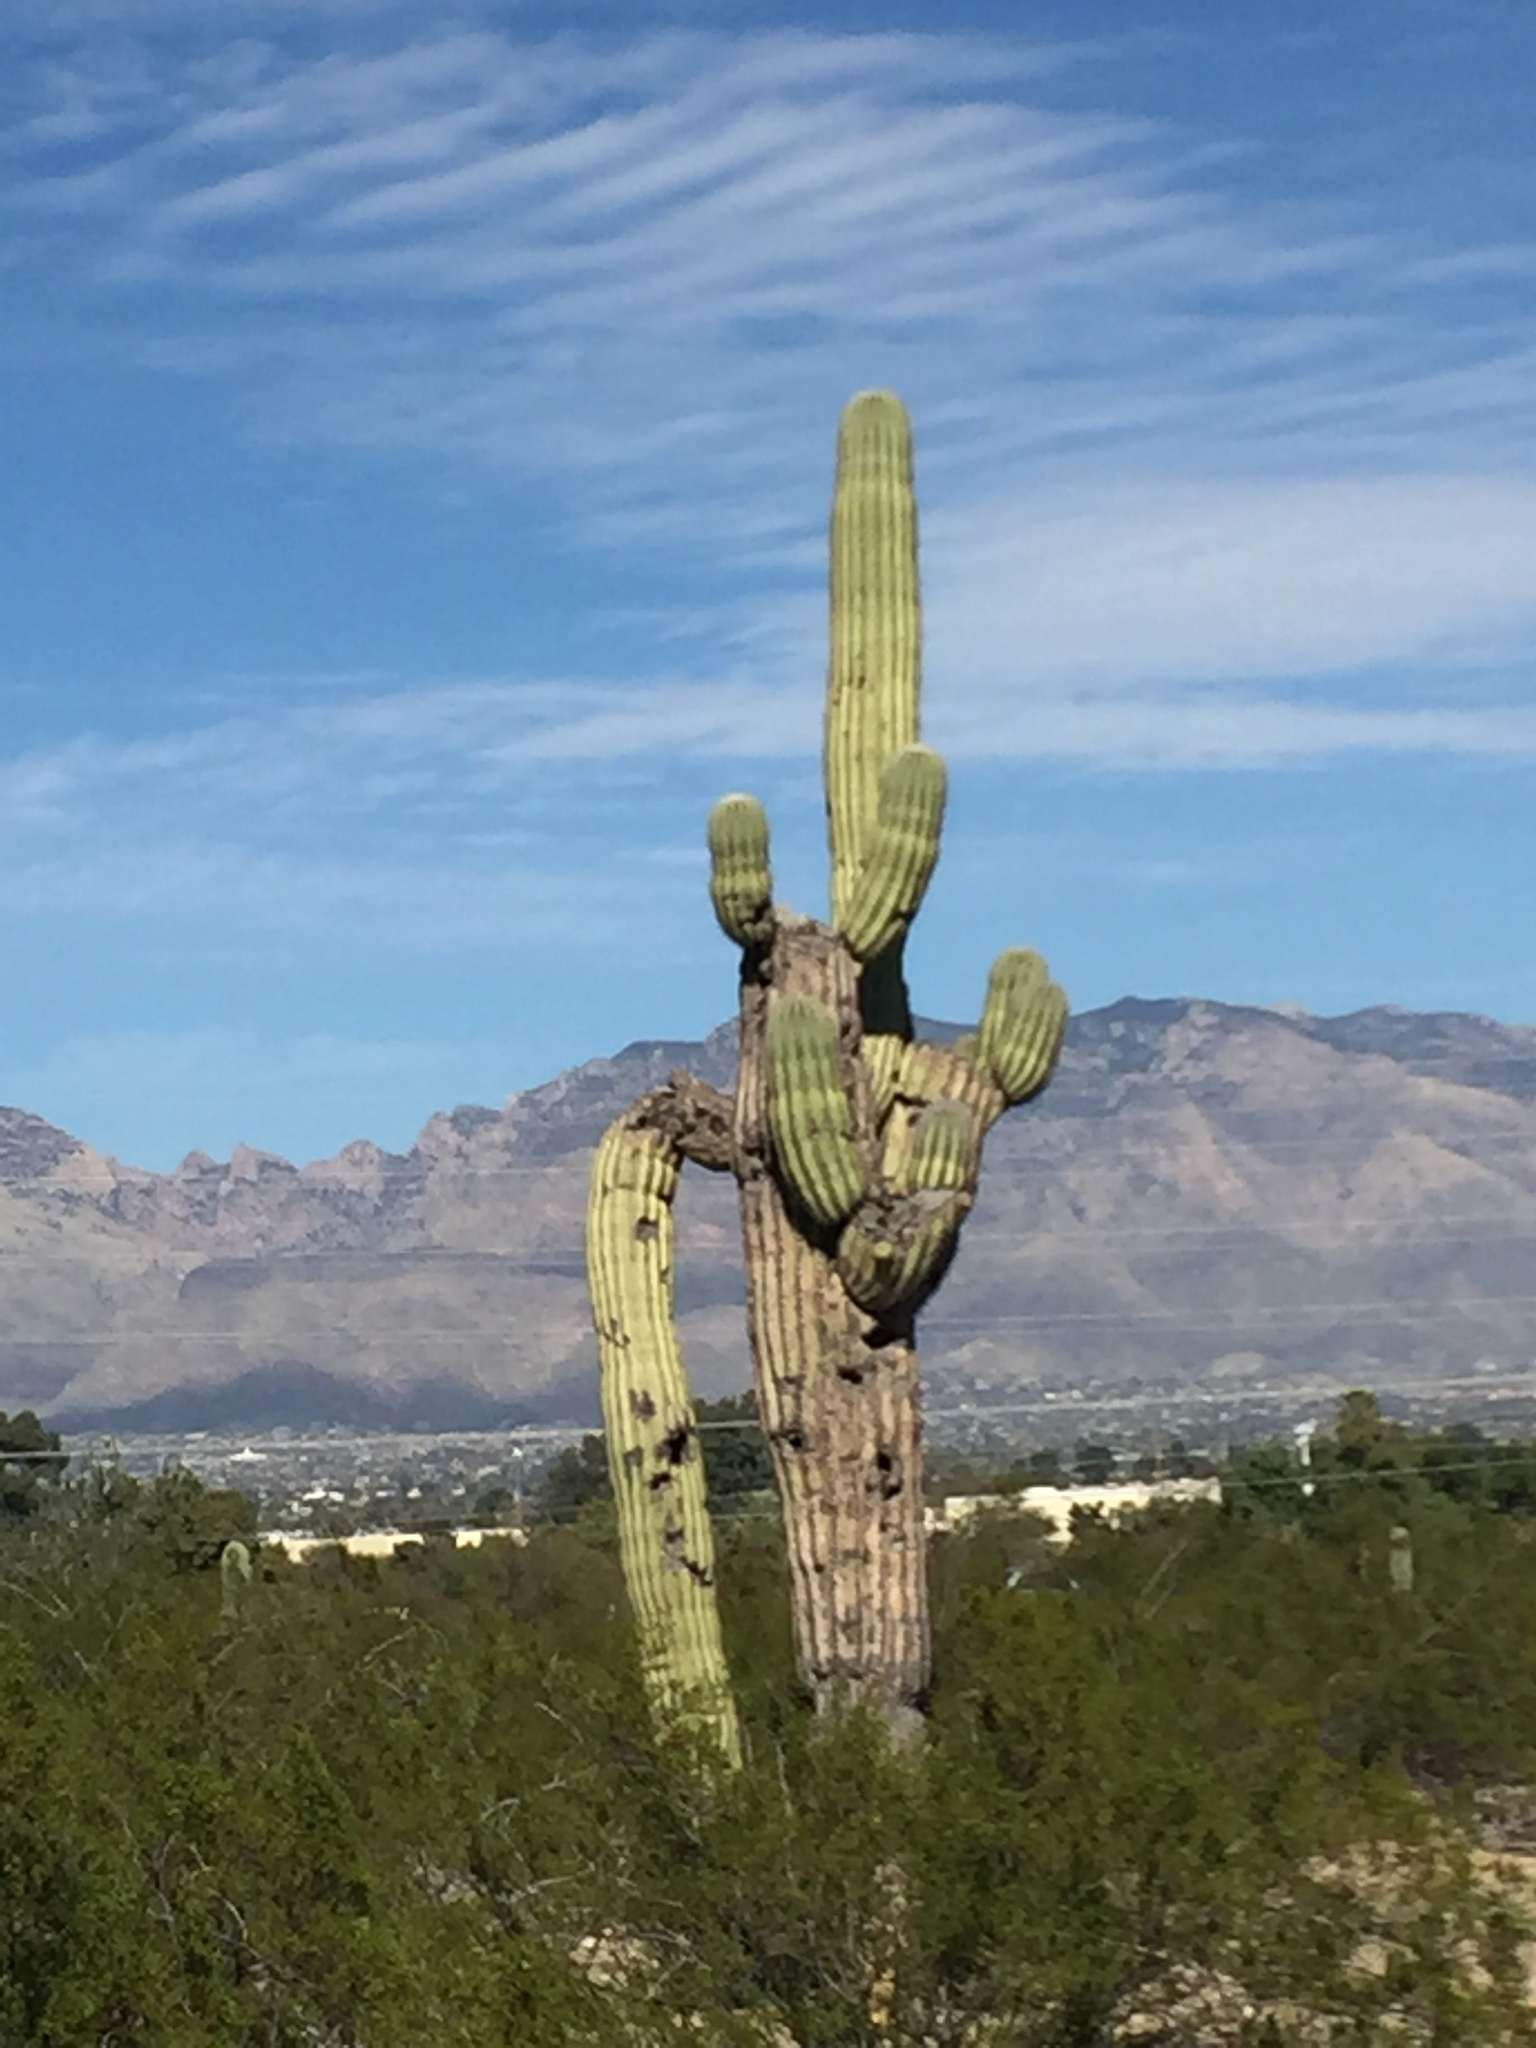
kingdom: Plantae
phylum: Tracheophyta
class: Magnoliopsida
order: Caryophyllales
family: Cactaceae
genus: Carnegiea
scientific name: Carnegiea gigantea
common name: Saguaro
